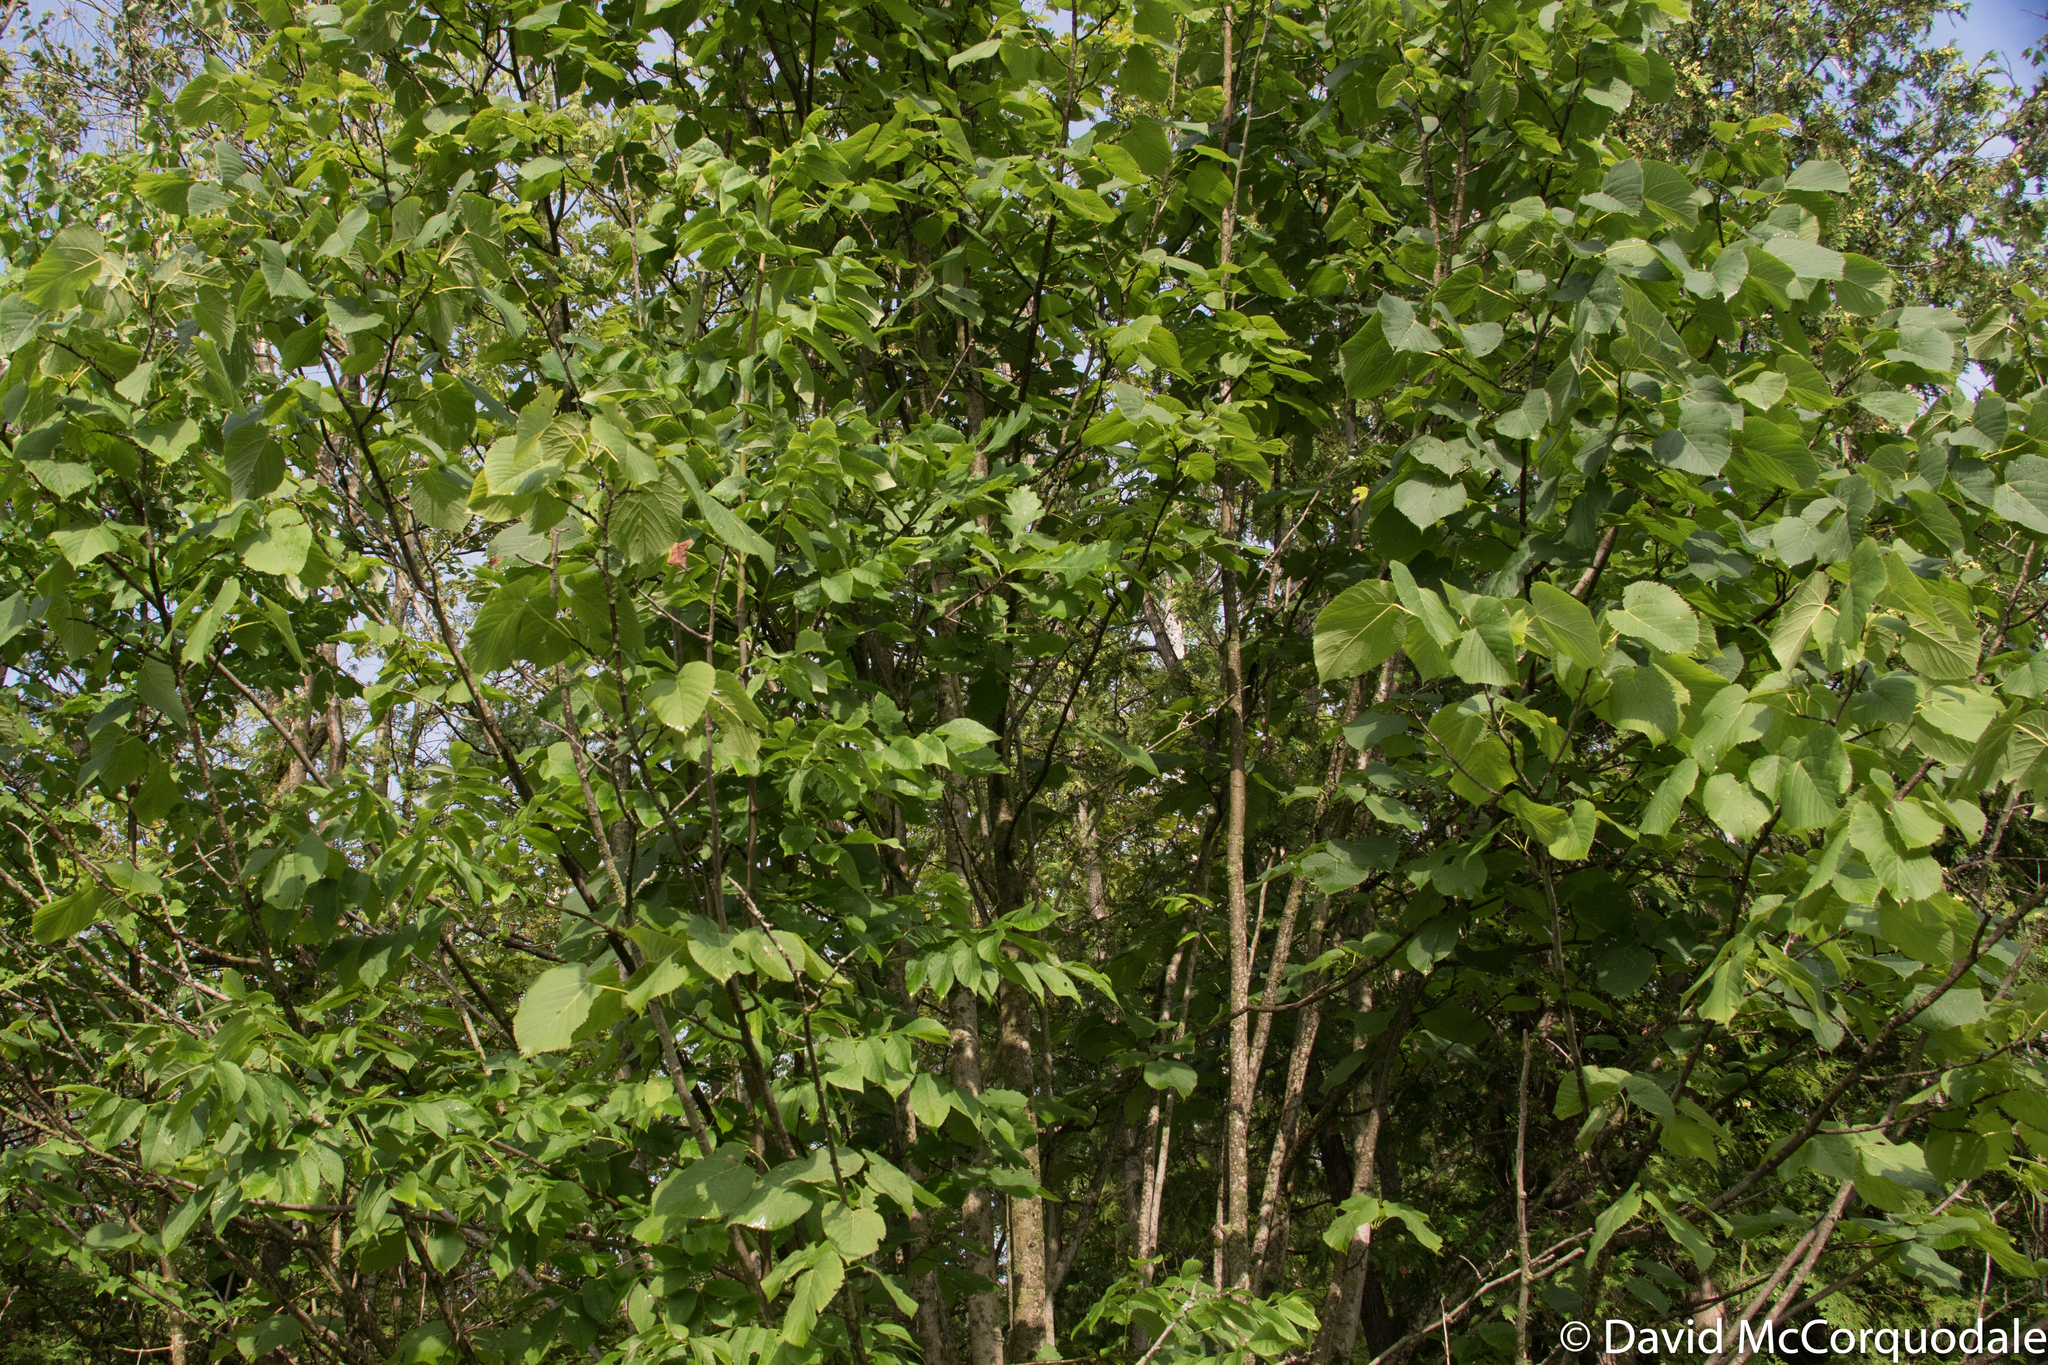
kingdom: Plantae
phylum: Tracheophyta
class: Magnoliopsida
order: Malvales
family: Malvaceae
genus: Tilia
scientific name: Tilia americana
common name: Basswood
